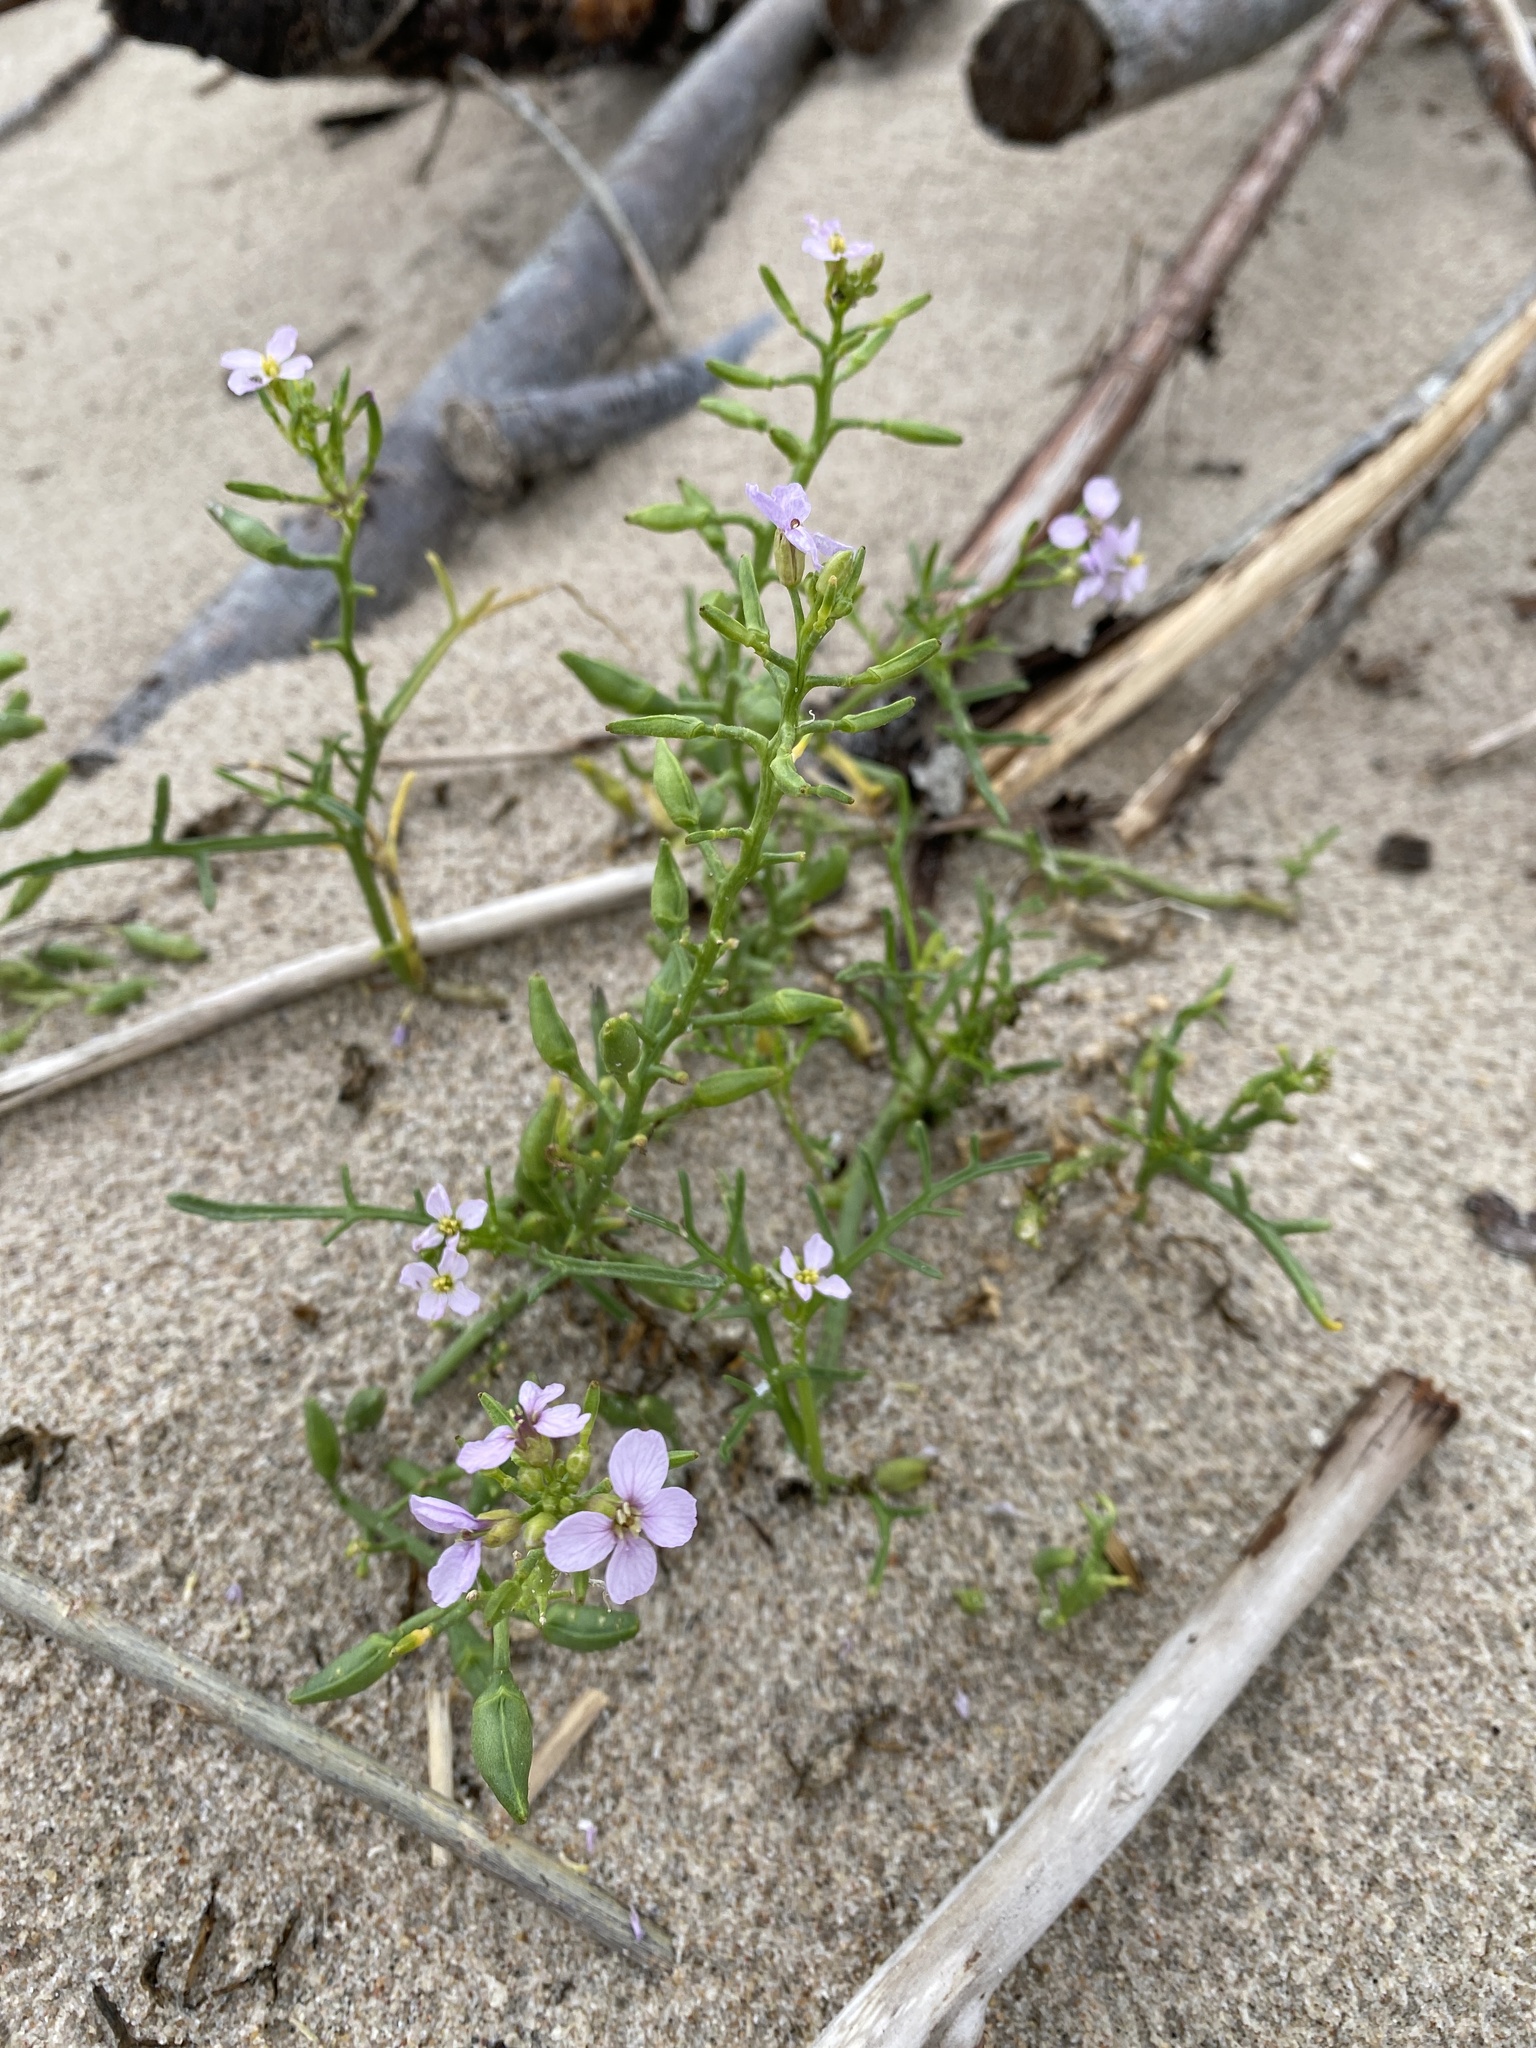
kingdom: Plantae
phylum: Tracheophyta
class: Magnoliopsida
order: Brassicales
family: Brassicaceae
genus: Cakile
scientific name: Cakile maritima
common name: Sea rocket
